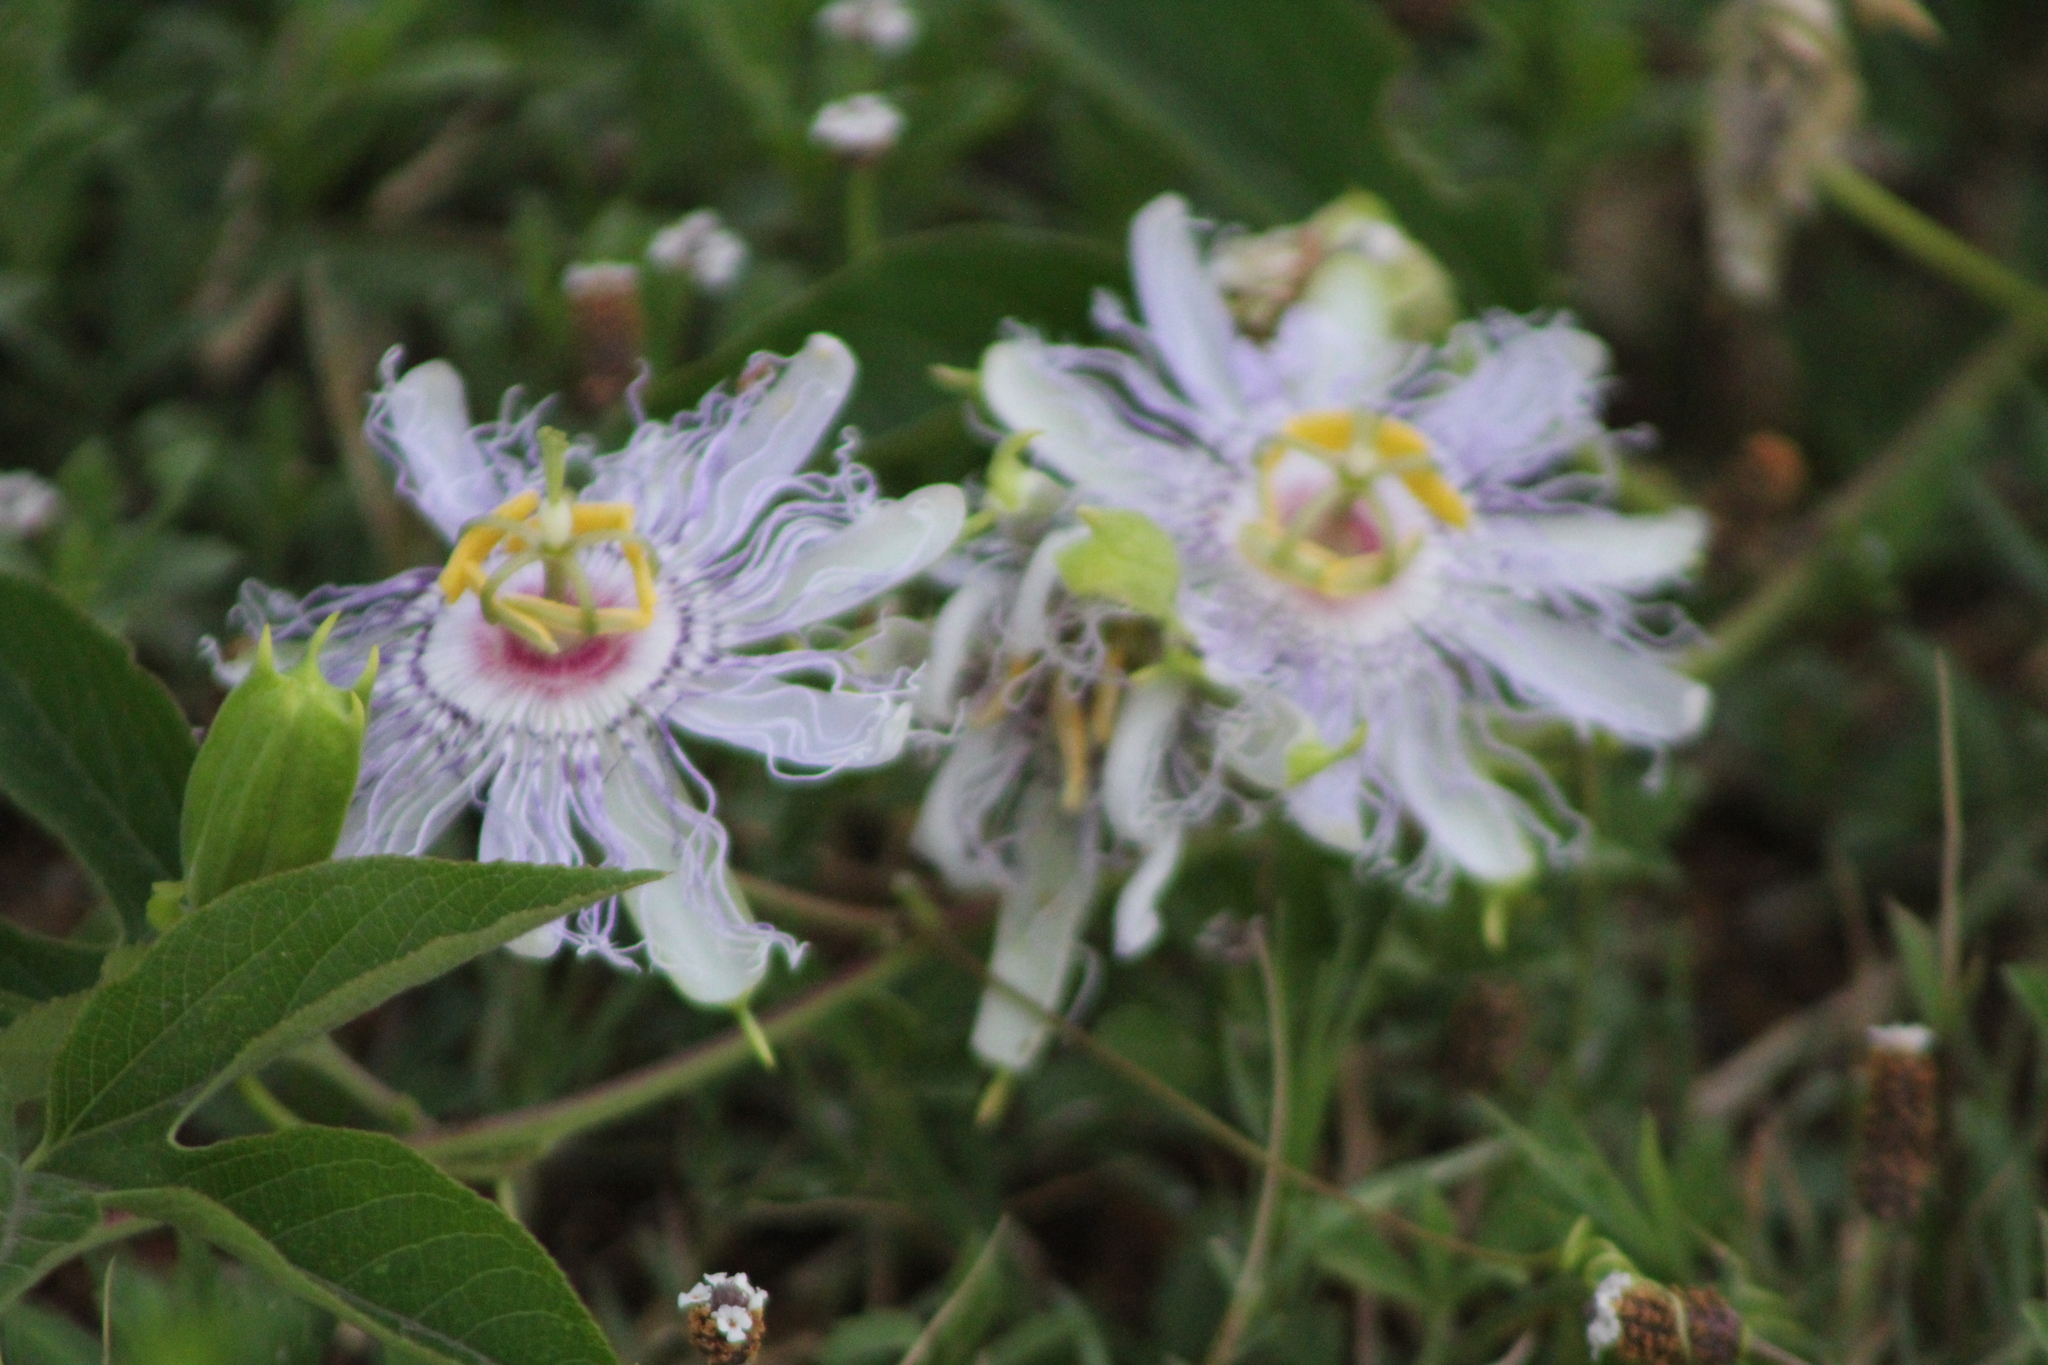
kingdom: Plantae
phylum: Tracheophyta
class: Magnoliopsida
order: Malpighiales
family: Passifloraceae
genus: Passiflora
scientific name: Passiflora incarnata
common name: Apricot-vine
